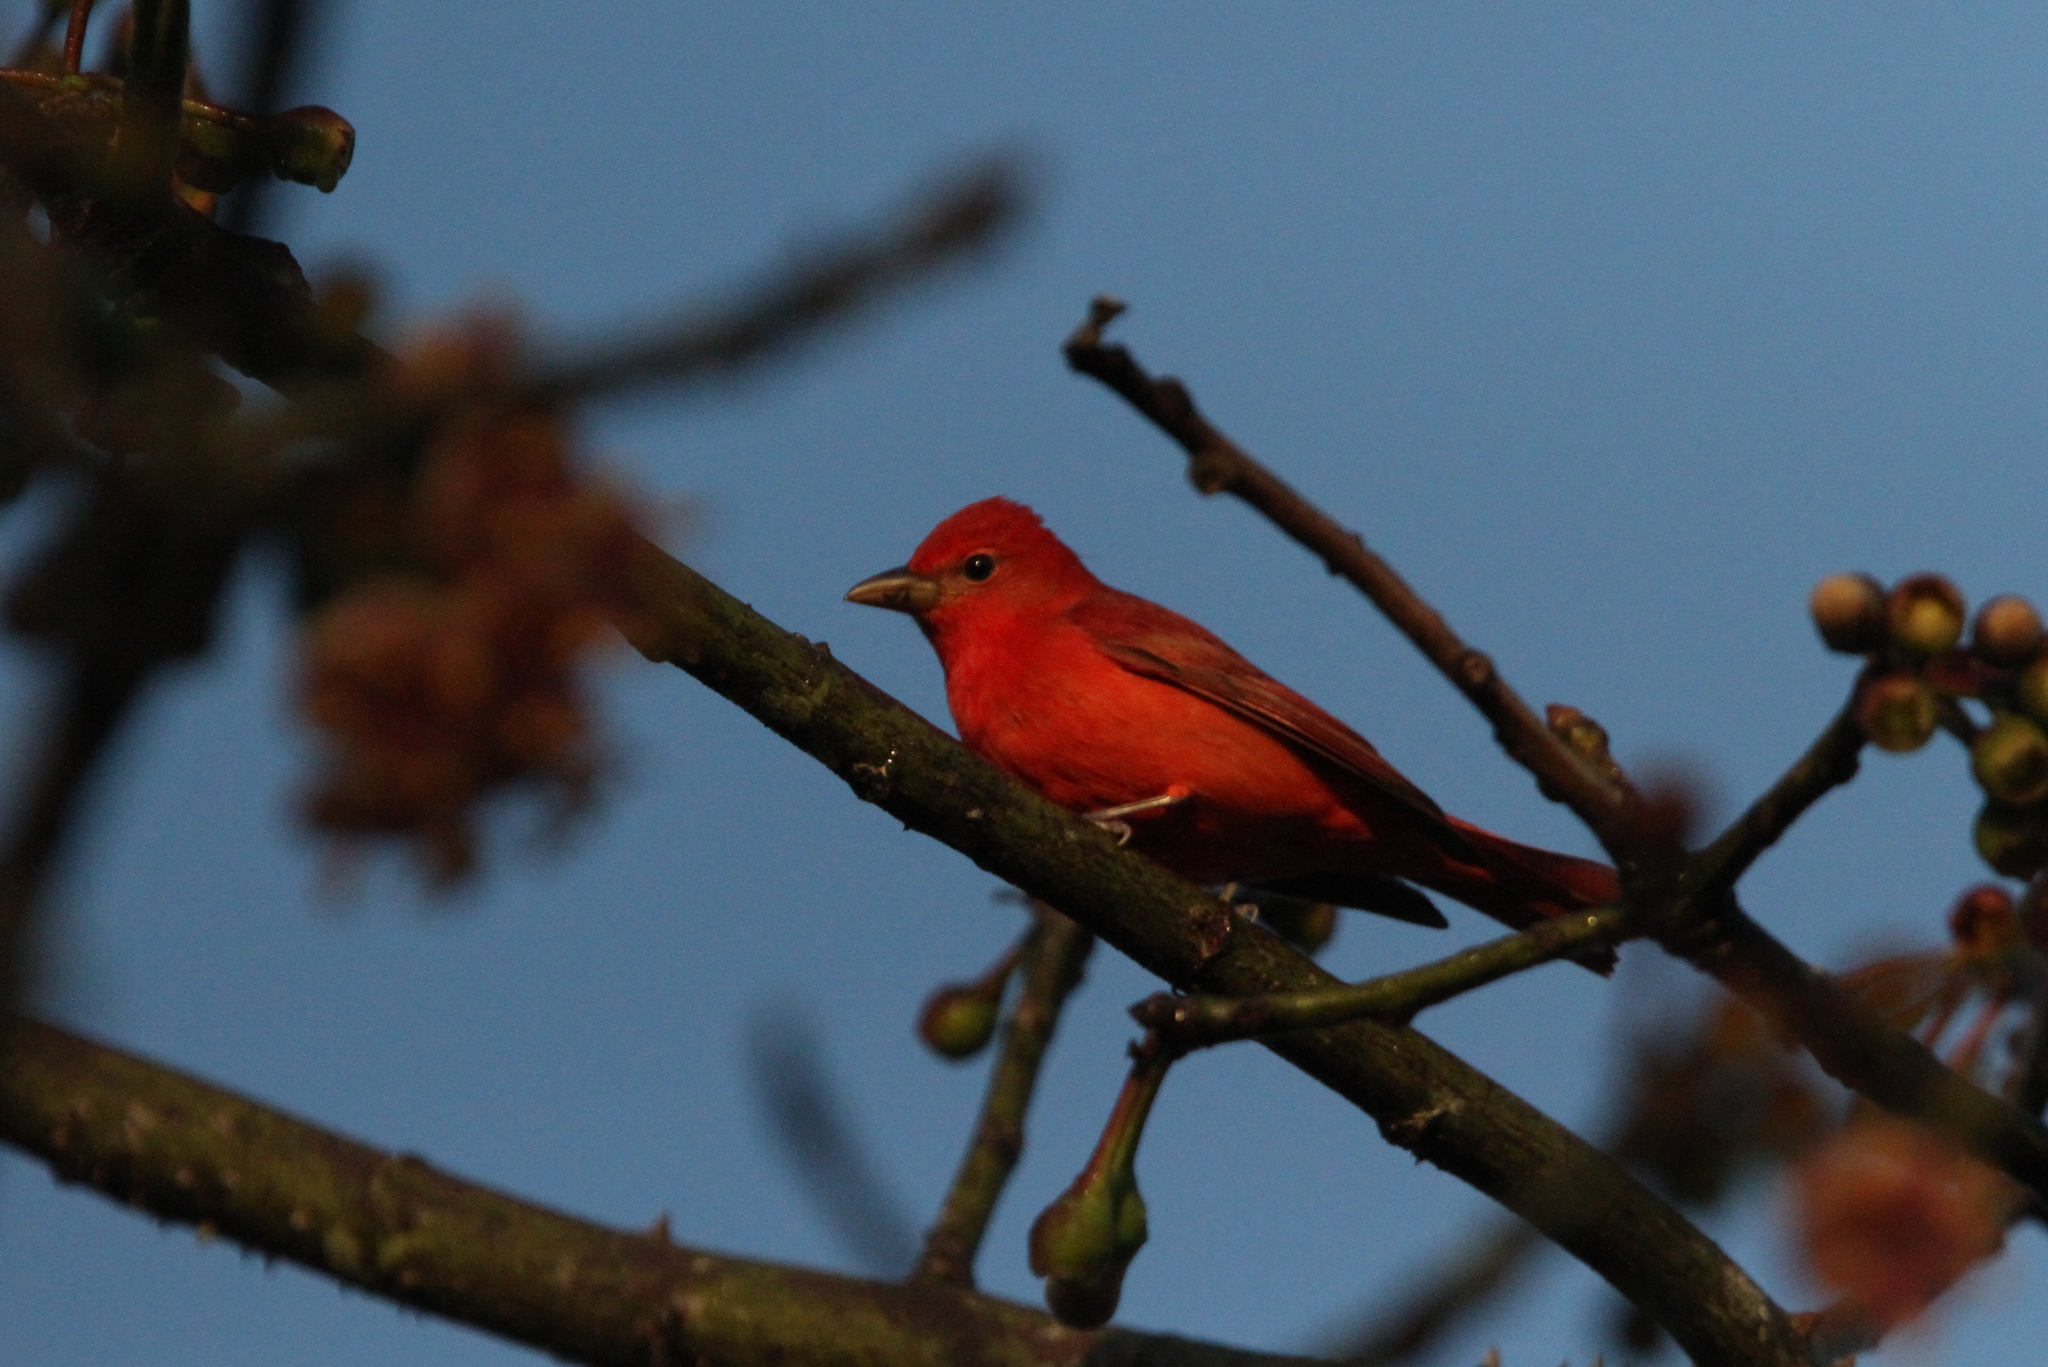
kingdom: Animalia
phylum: Chordata
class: Aves
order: Passeriformes
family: Cardinalidae
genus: Piranga
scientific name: Piranga rubra
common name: Summer tanager
